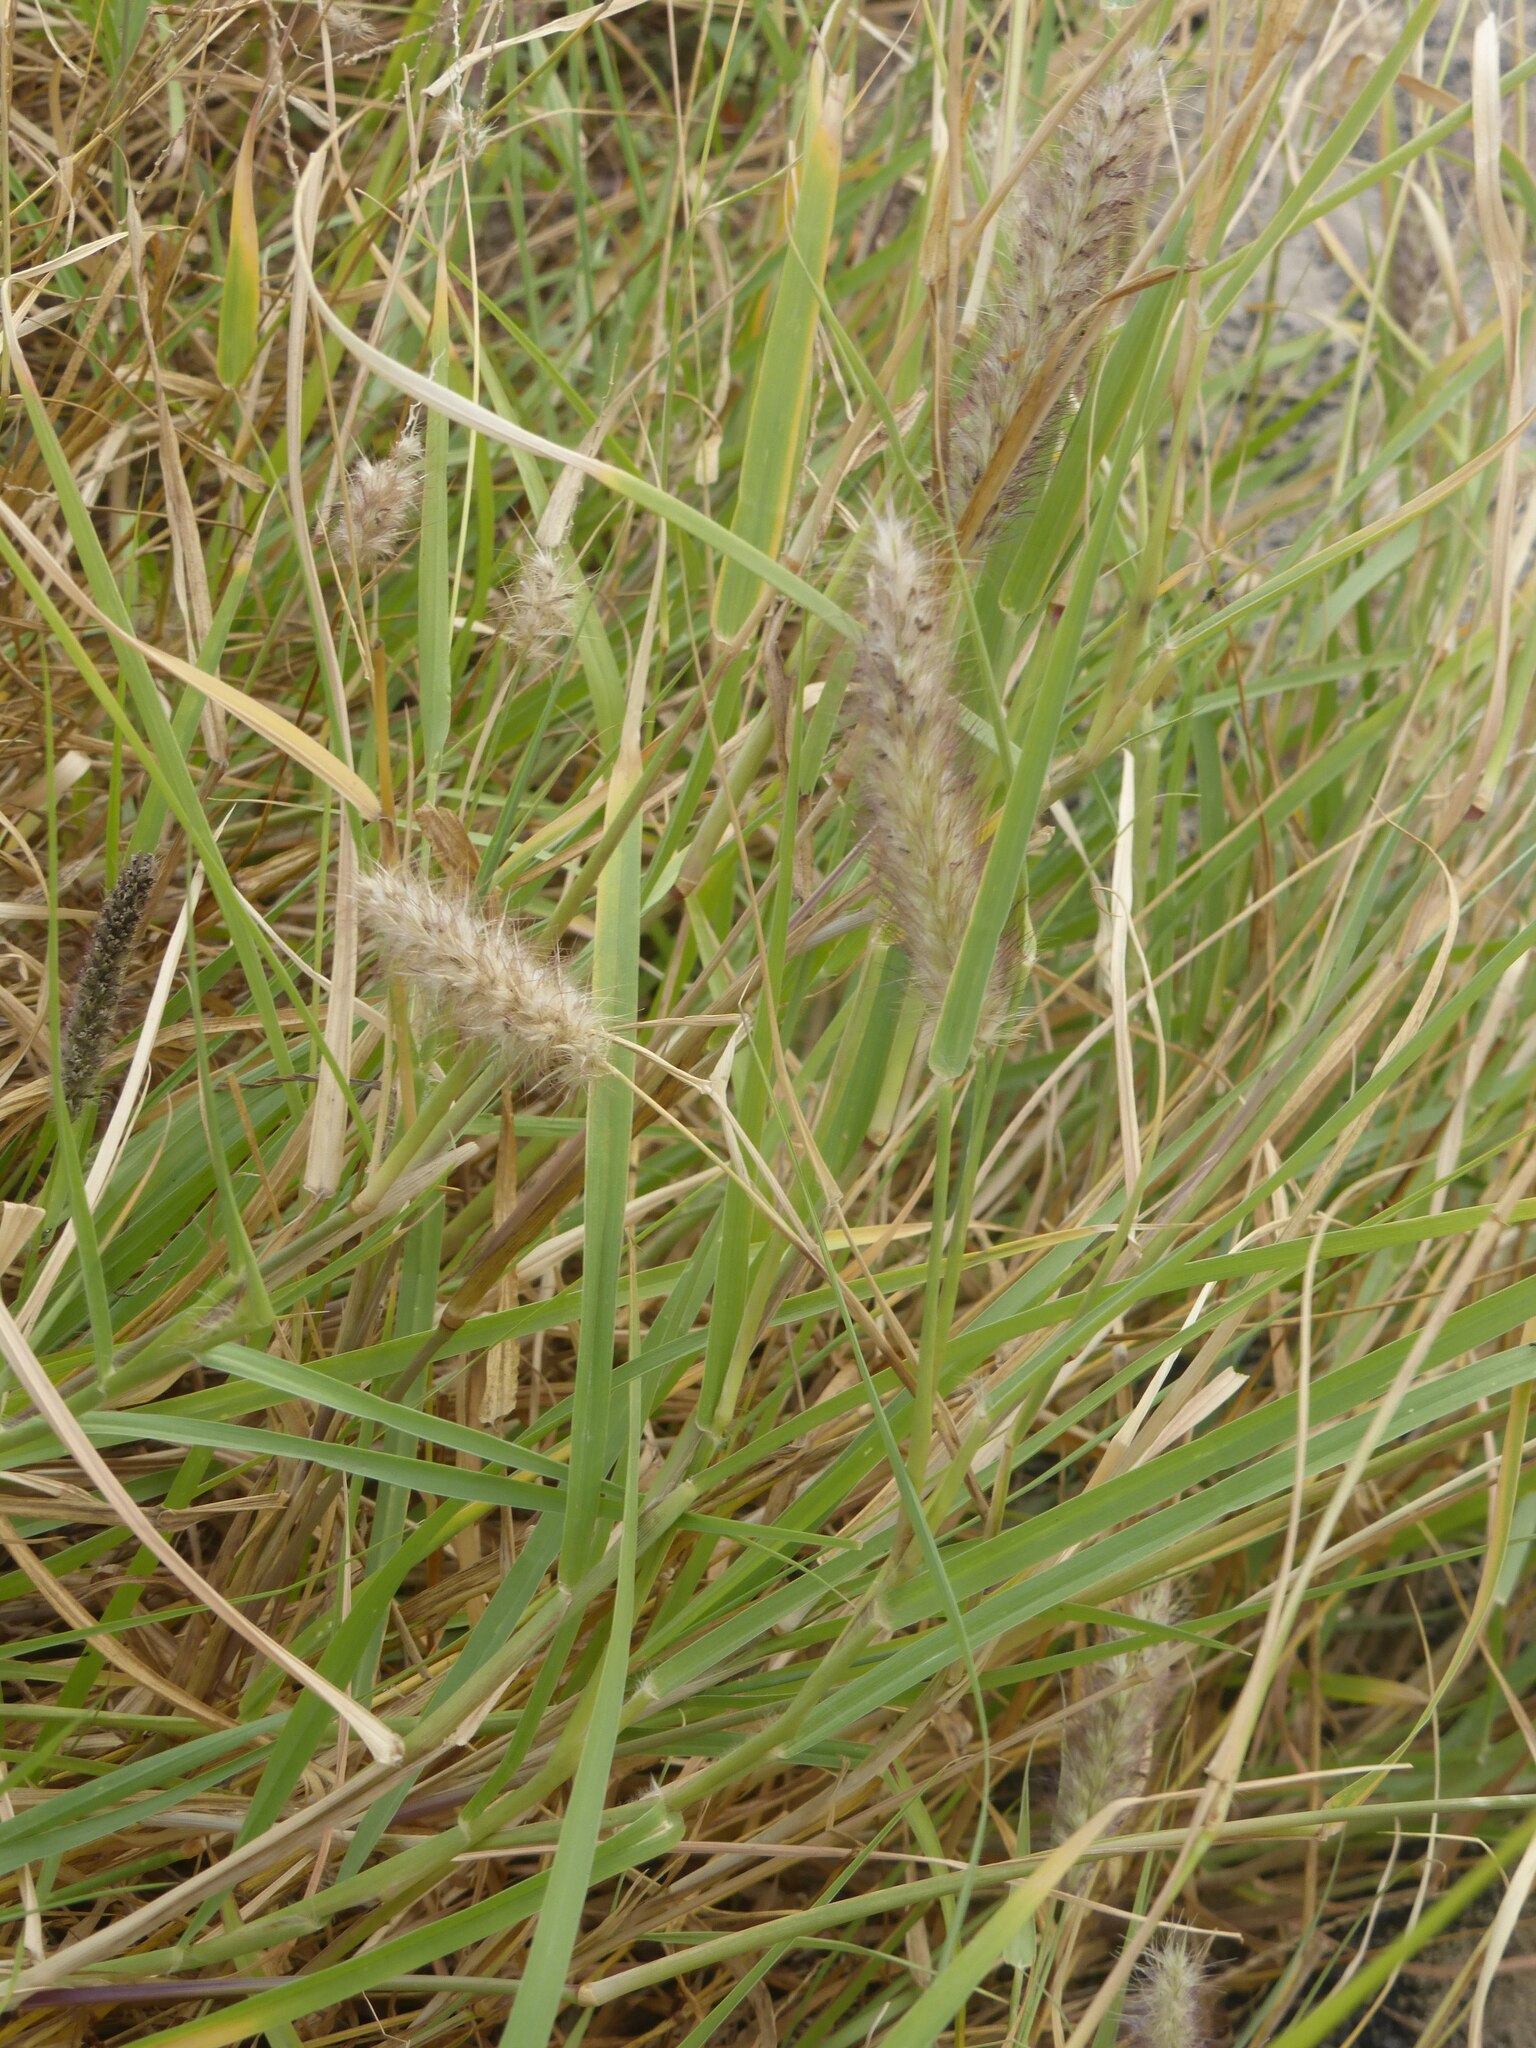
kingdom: Plantae
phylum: Tracheophyta
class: Liliopsida
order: Poales
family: Poaceae
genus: Cenchrus
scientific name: Cenchrus ciliaris
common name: Buffelgrass
